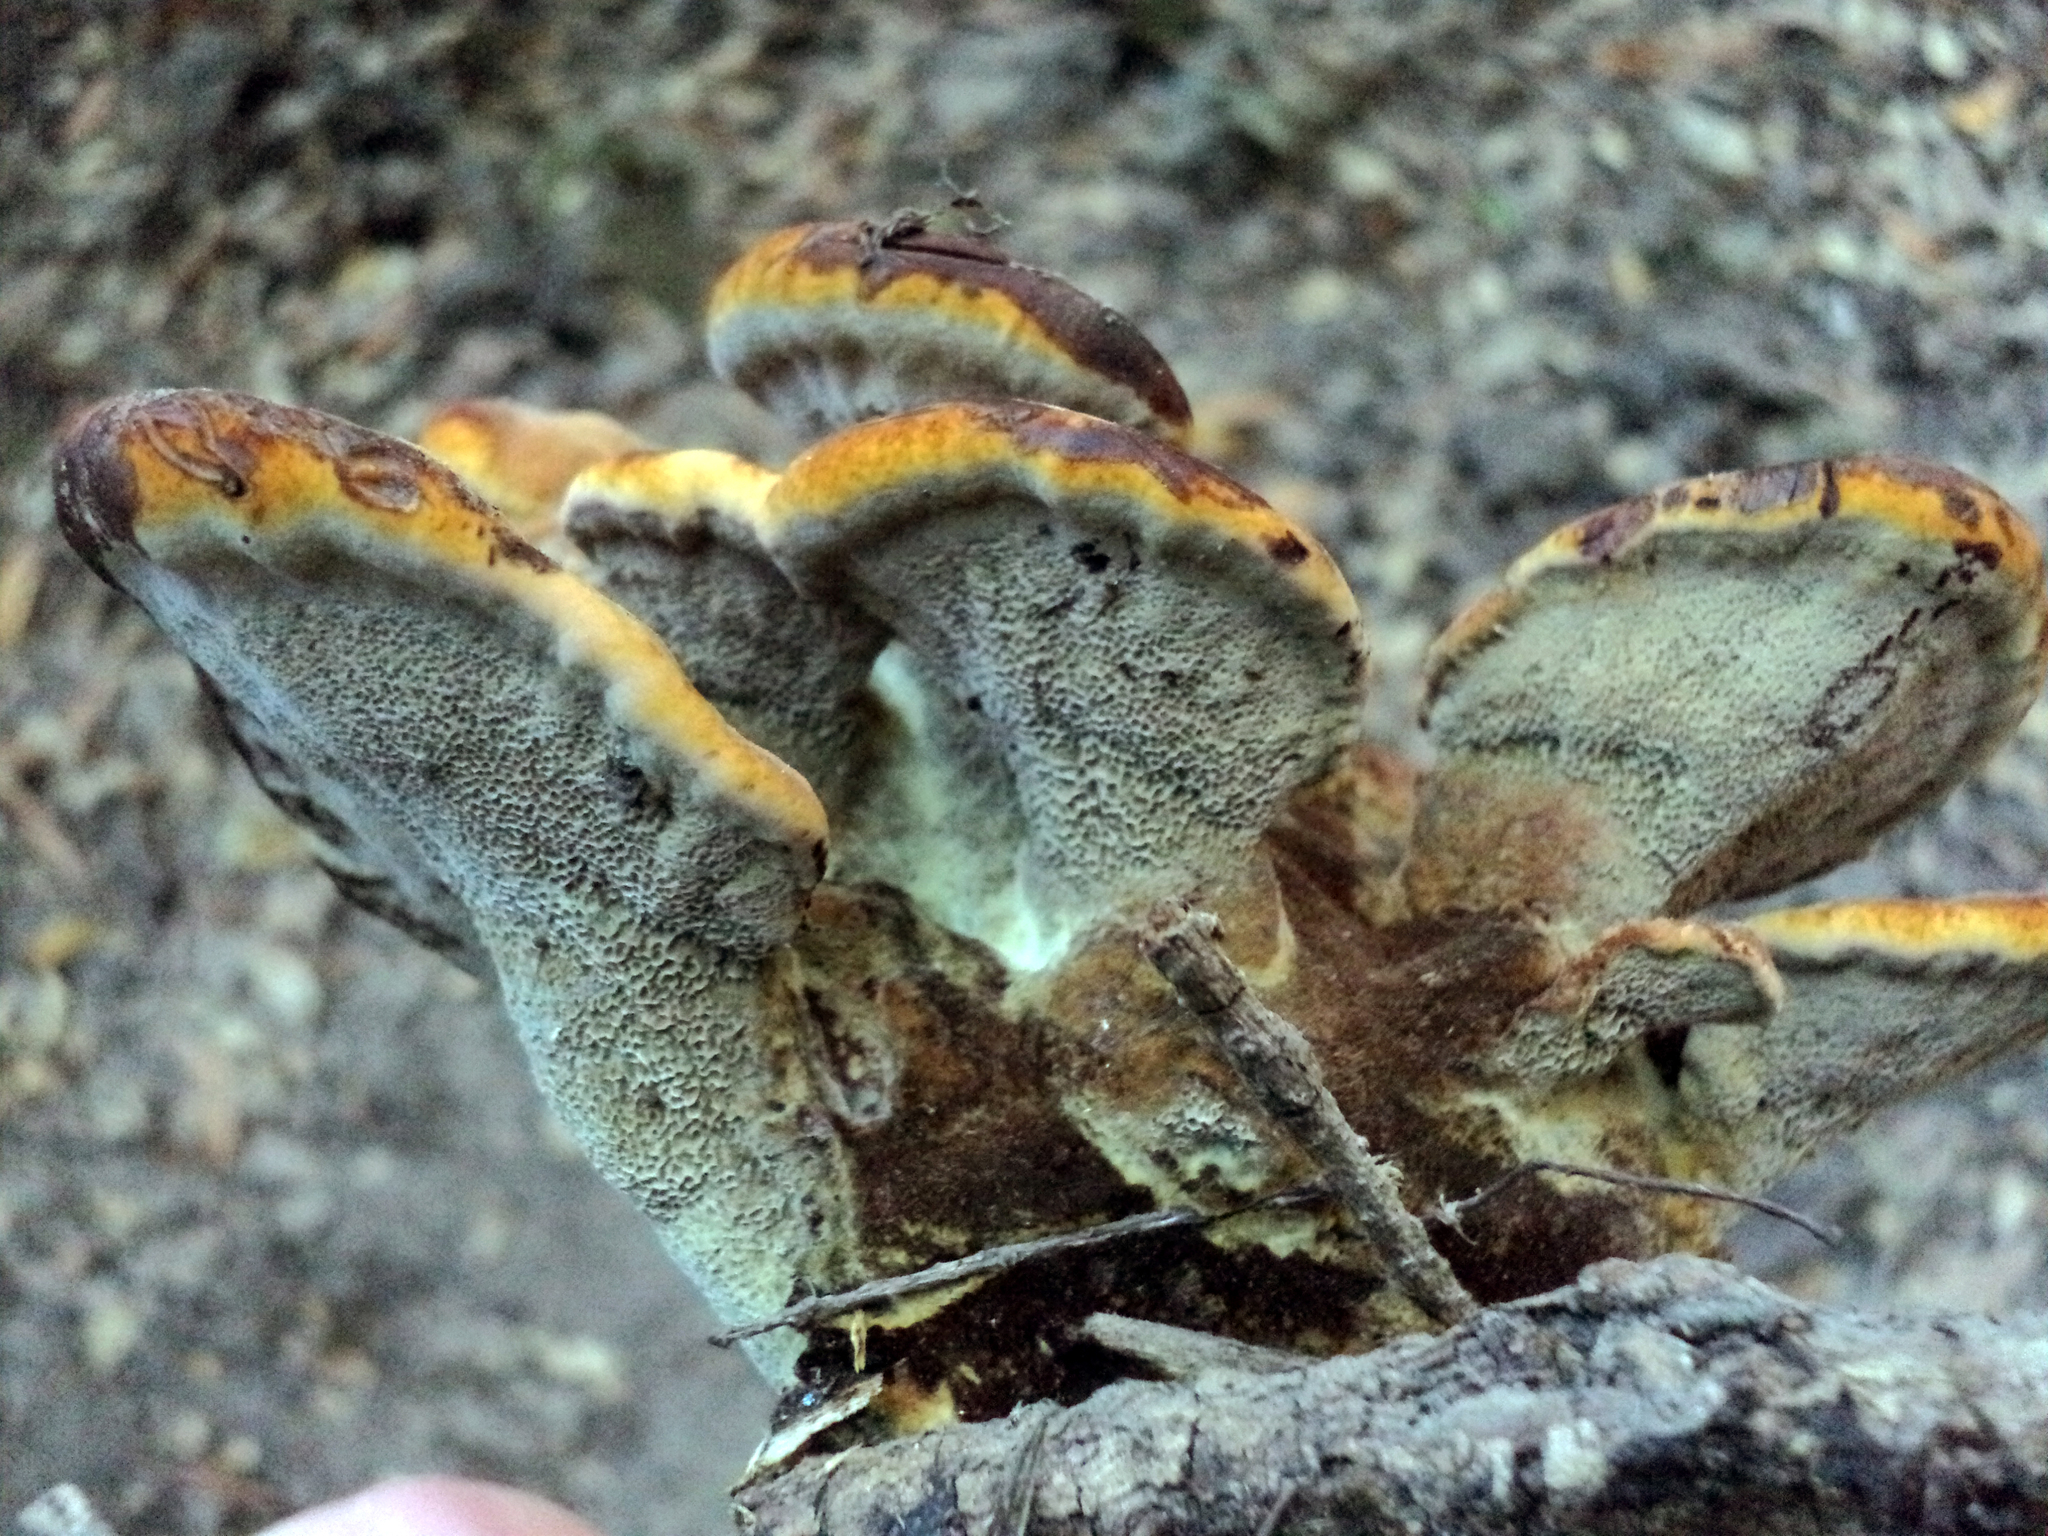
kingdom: Fungi
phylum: Basidiomycota
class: Agaricomycetes
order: Polyporales
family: Laetiporaceae
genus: Phaeolus
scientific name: Phaeolus schweinitzii
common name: Dyer's mazegill
